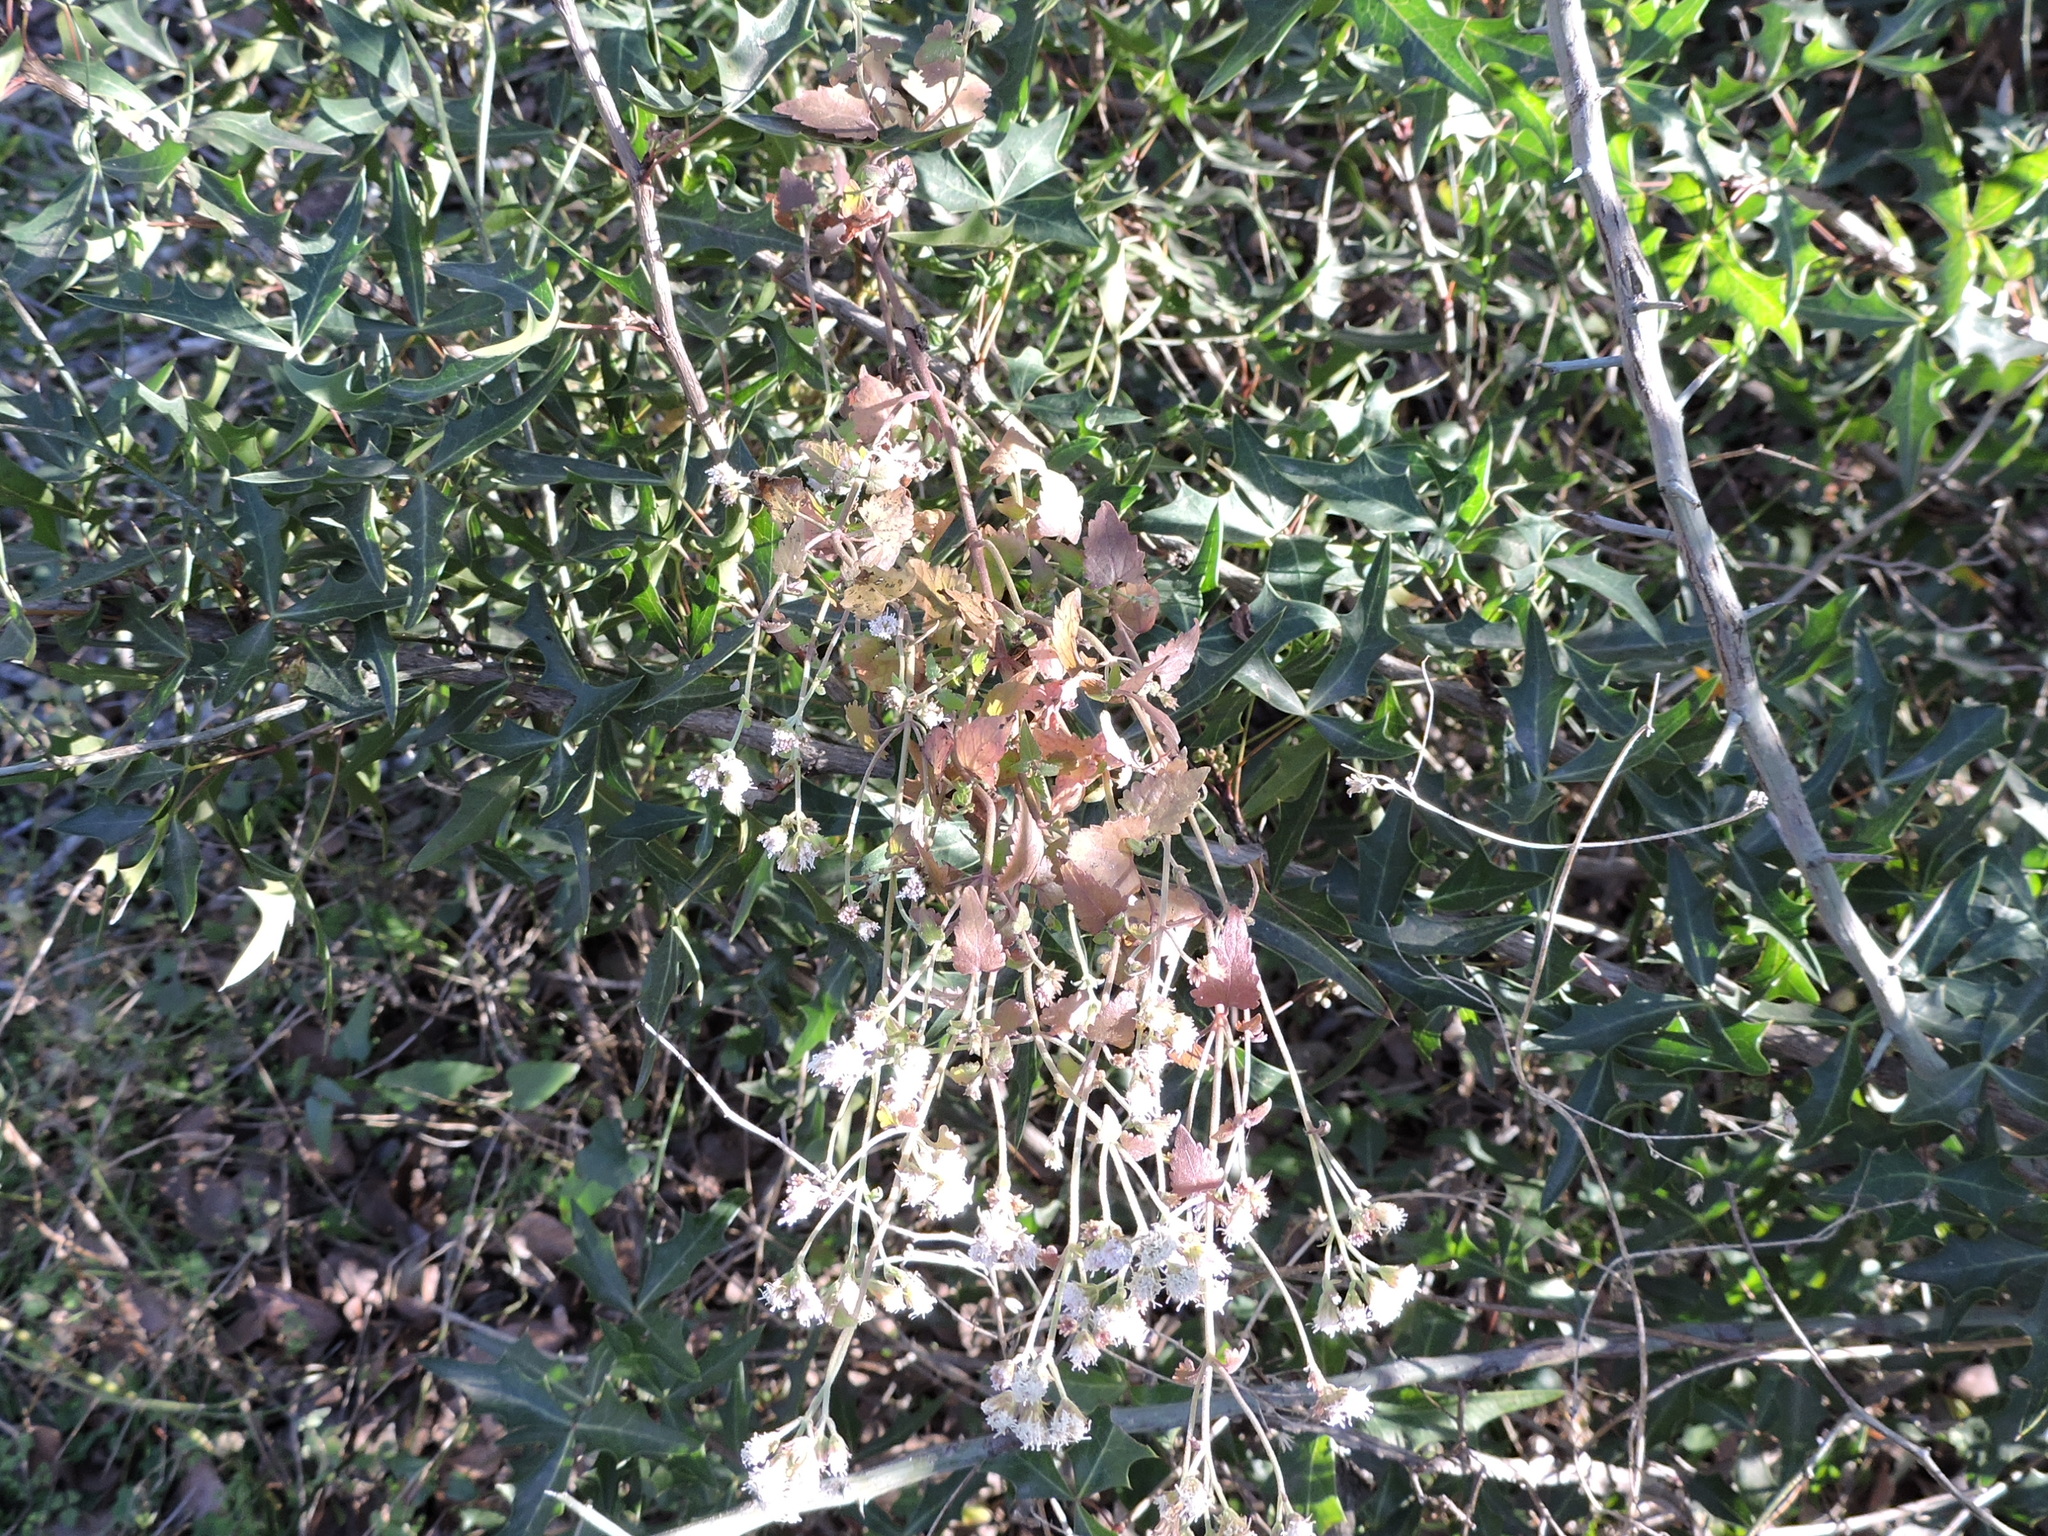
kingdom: Plantae
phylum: Tracheophyta
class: Magnoliopsida
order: Asterales
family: Asteraceae
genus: Ageratina
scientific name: Ageratina havanensis
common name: Havana snakeroot
